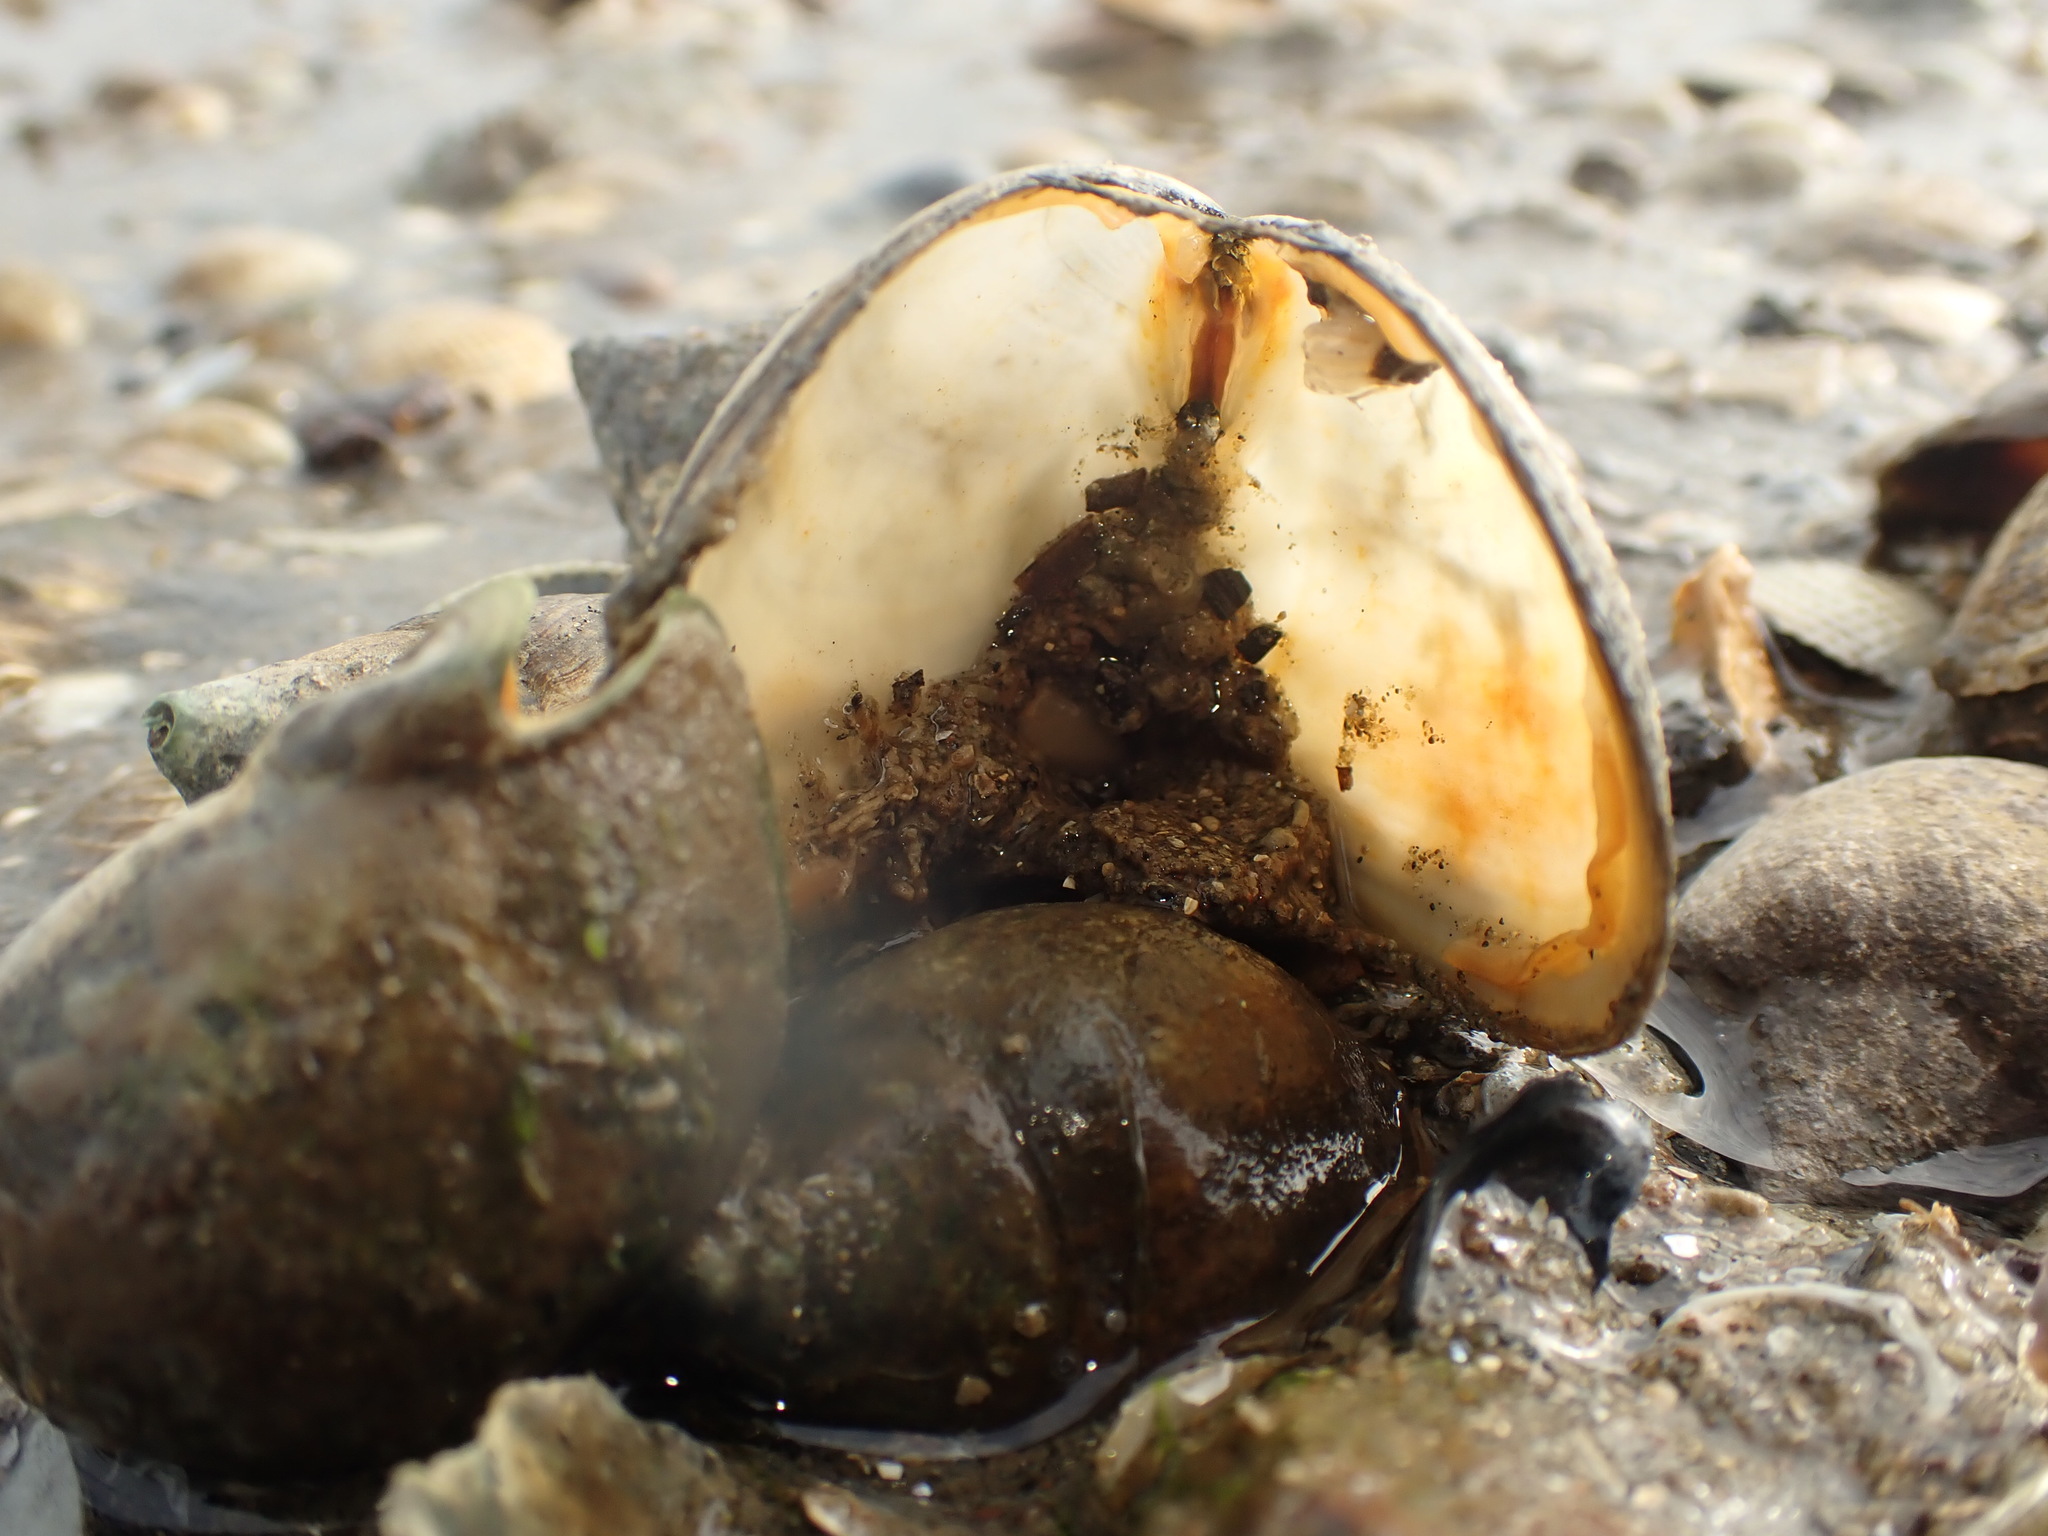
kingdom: Animalia
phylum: Mollusca
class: Gastropoda
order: Neogastropoda
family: Cominellidae
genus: Cominella
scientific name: Cominella adspersa
